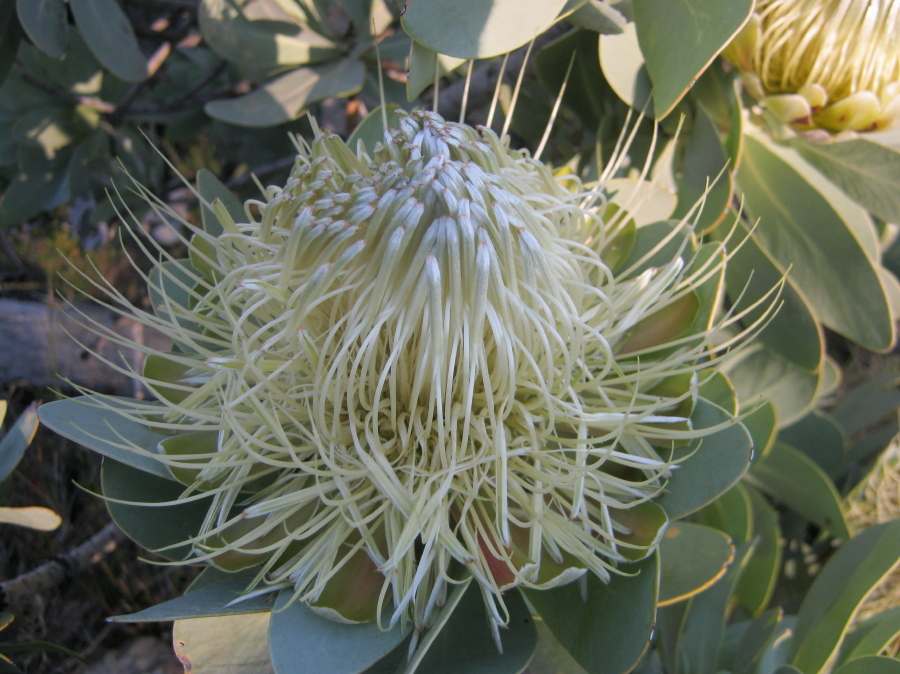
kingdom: Plantae
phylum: Tracheophyta
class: Magnoliopsida
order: Proteales
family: Proteaceae
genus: Protea
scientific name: Protea nitida
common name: Tree protea
